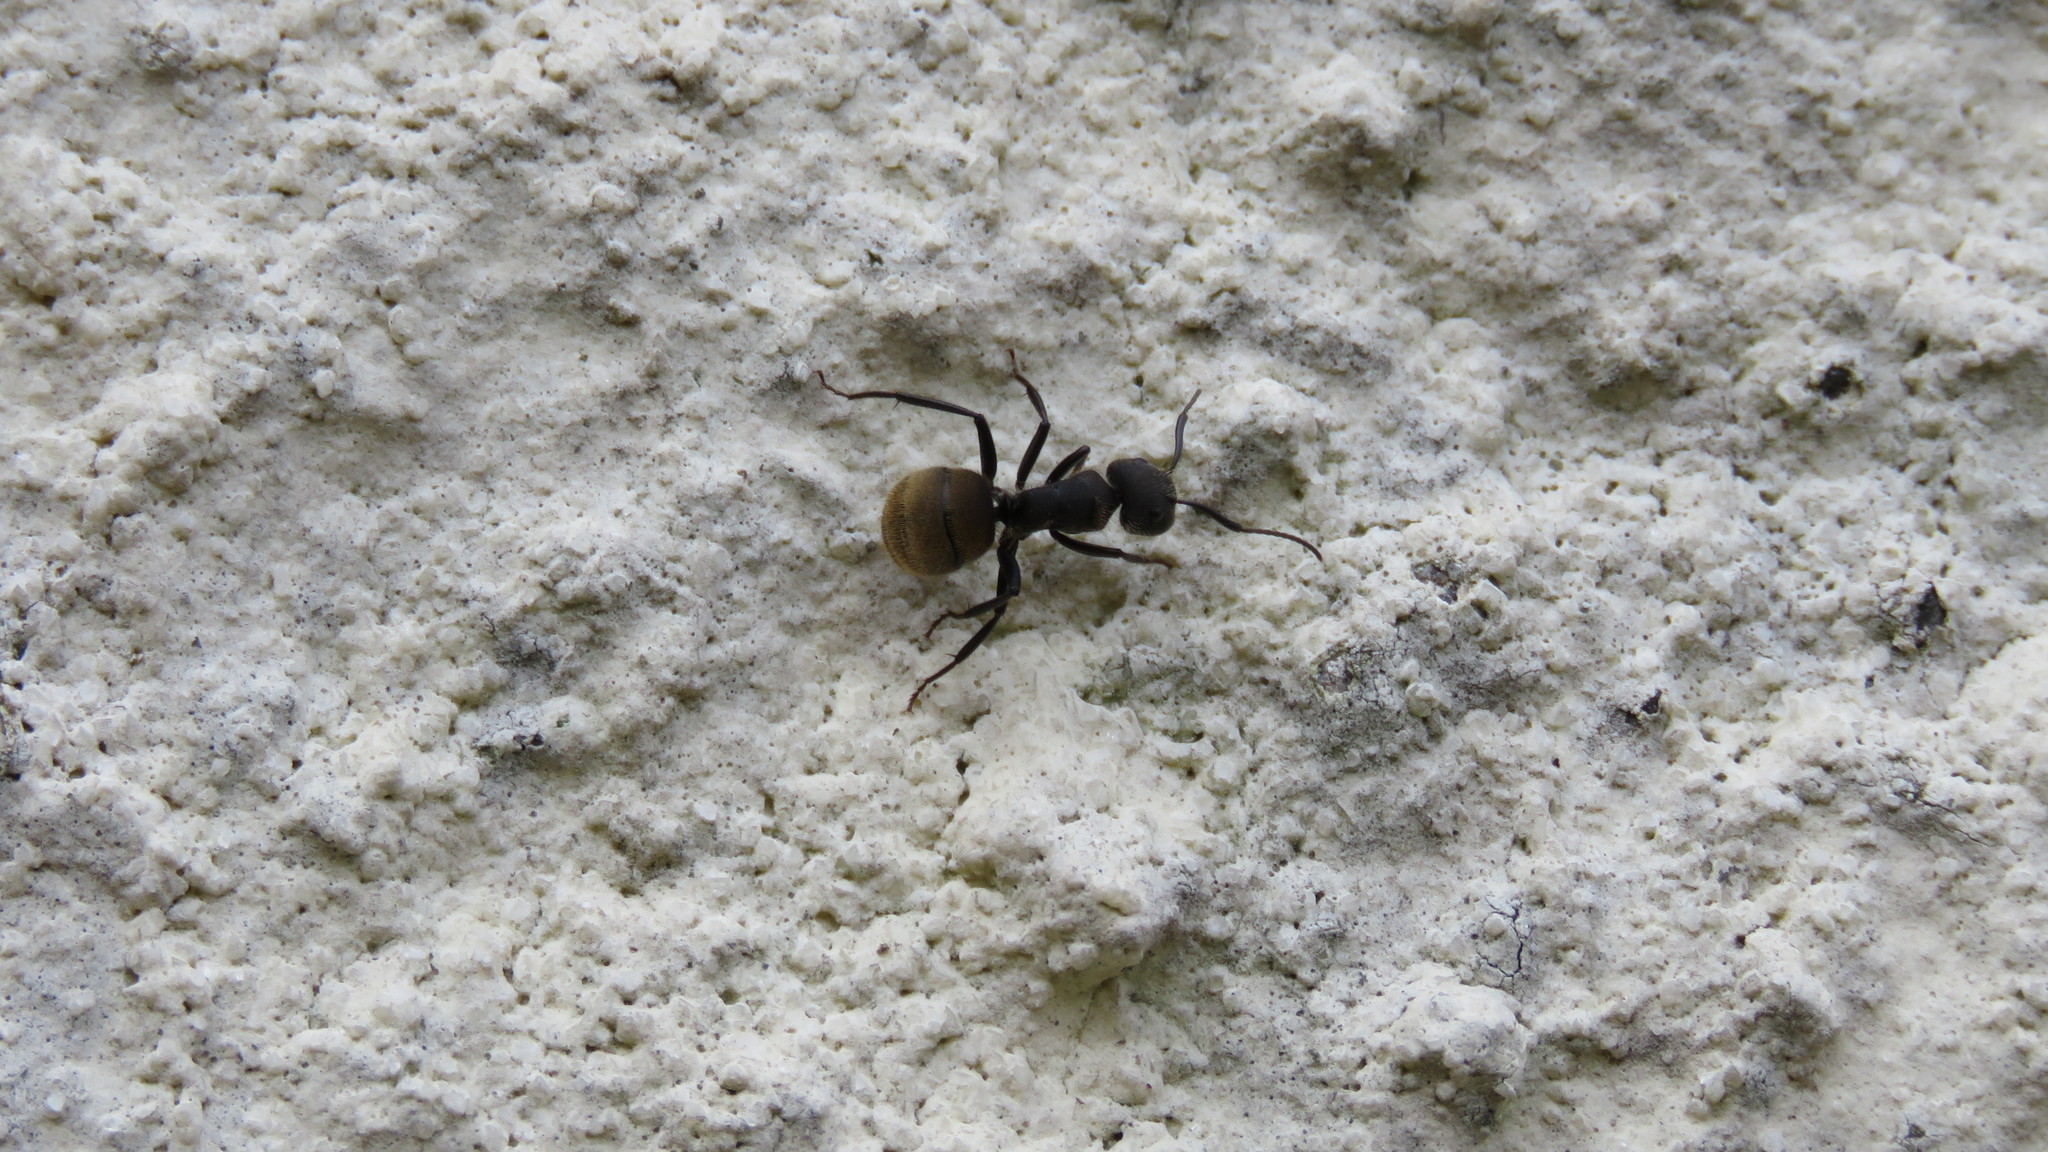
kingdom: Animalia
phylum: Arthropoda
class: Insecta
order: Hymenoptera
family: Formicidae
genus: Camponotus
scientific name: Camponotus mus
